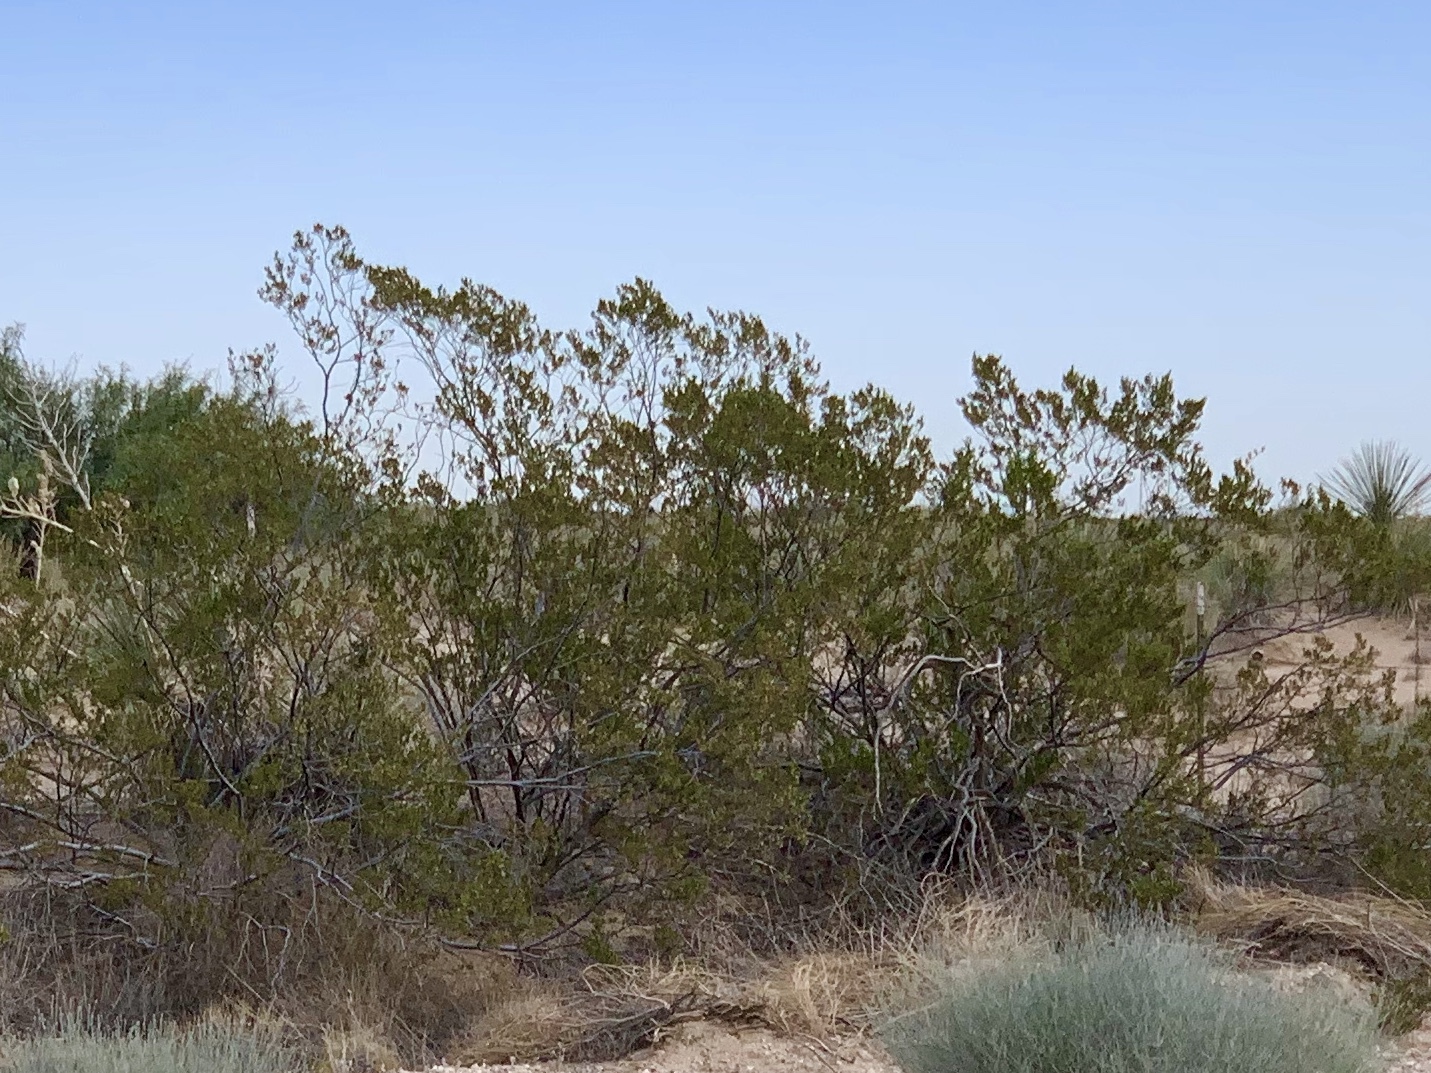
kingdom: Plantae
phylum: Tracheophyta
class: Magnoliopsida
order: Zygophyllales
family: Zygophyllaceae
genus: Larrea
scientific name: Larrea tridentata
